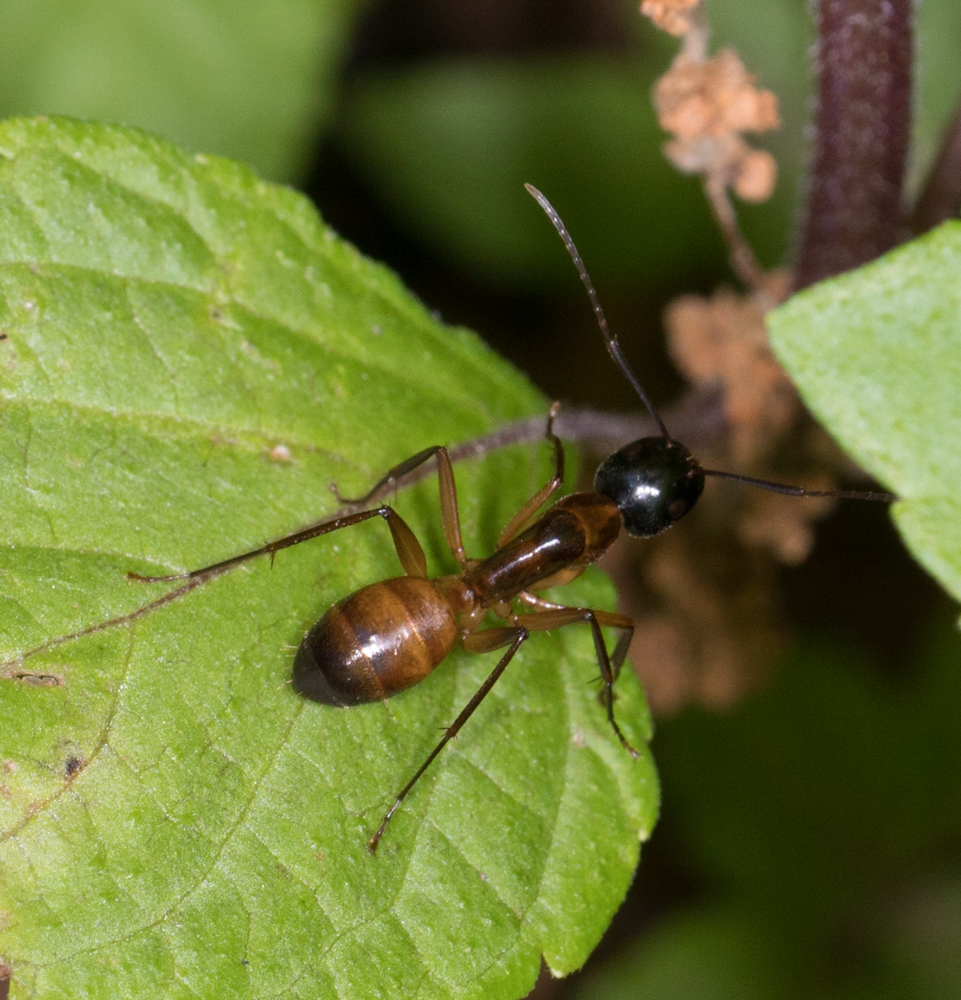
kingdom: Animalia
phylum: Arthropoda
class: Insecta
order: Hymenoptera
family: Formicidae
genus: Camponotus
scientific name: Camponotus americanus
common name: American carpenter ant
